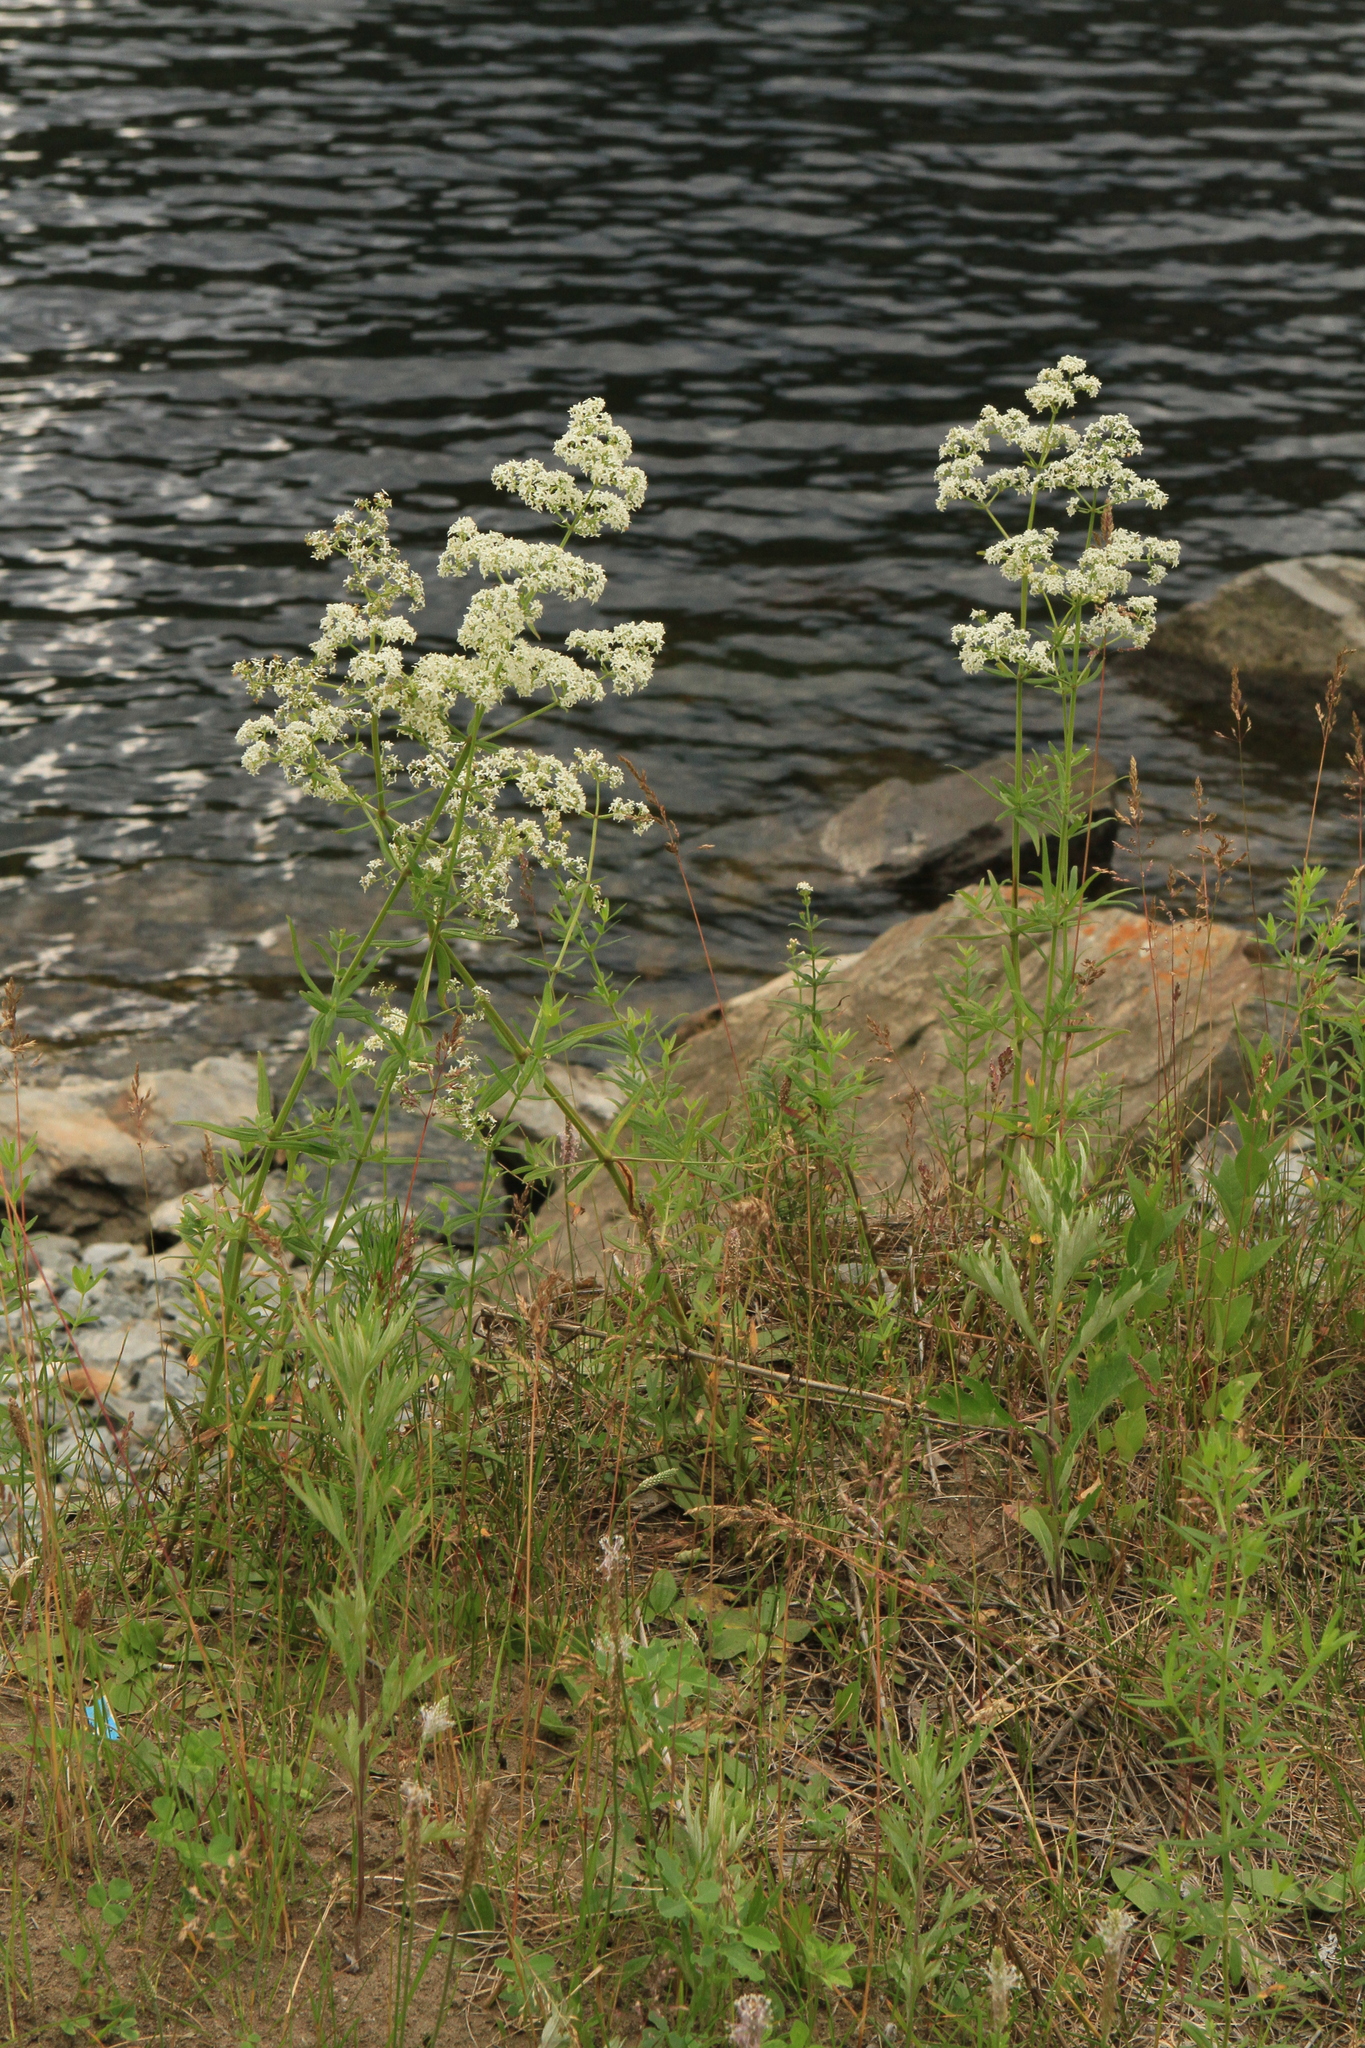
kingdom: Plantae
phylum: Tracheophyta
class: Magnoliopsida
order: Gentianales
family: Rubiaceae
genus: Galium
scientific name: Galium boreale
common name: Northern bedstraw
